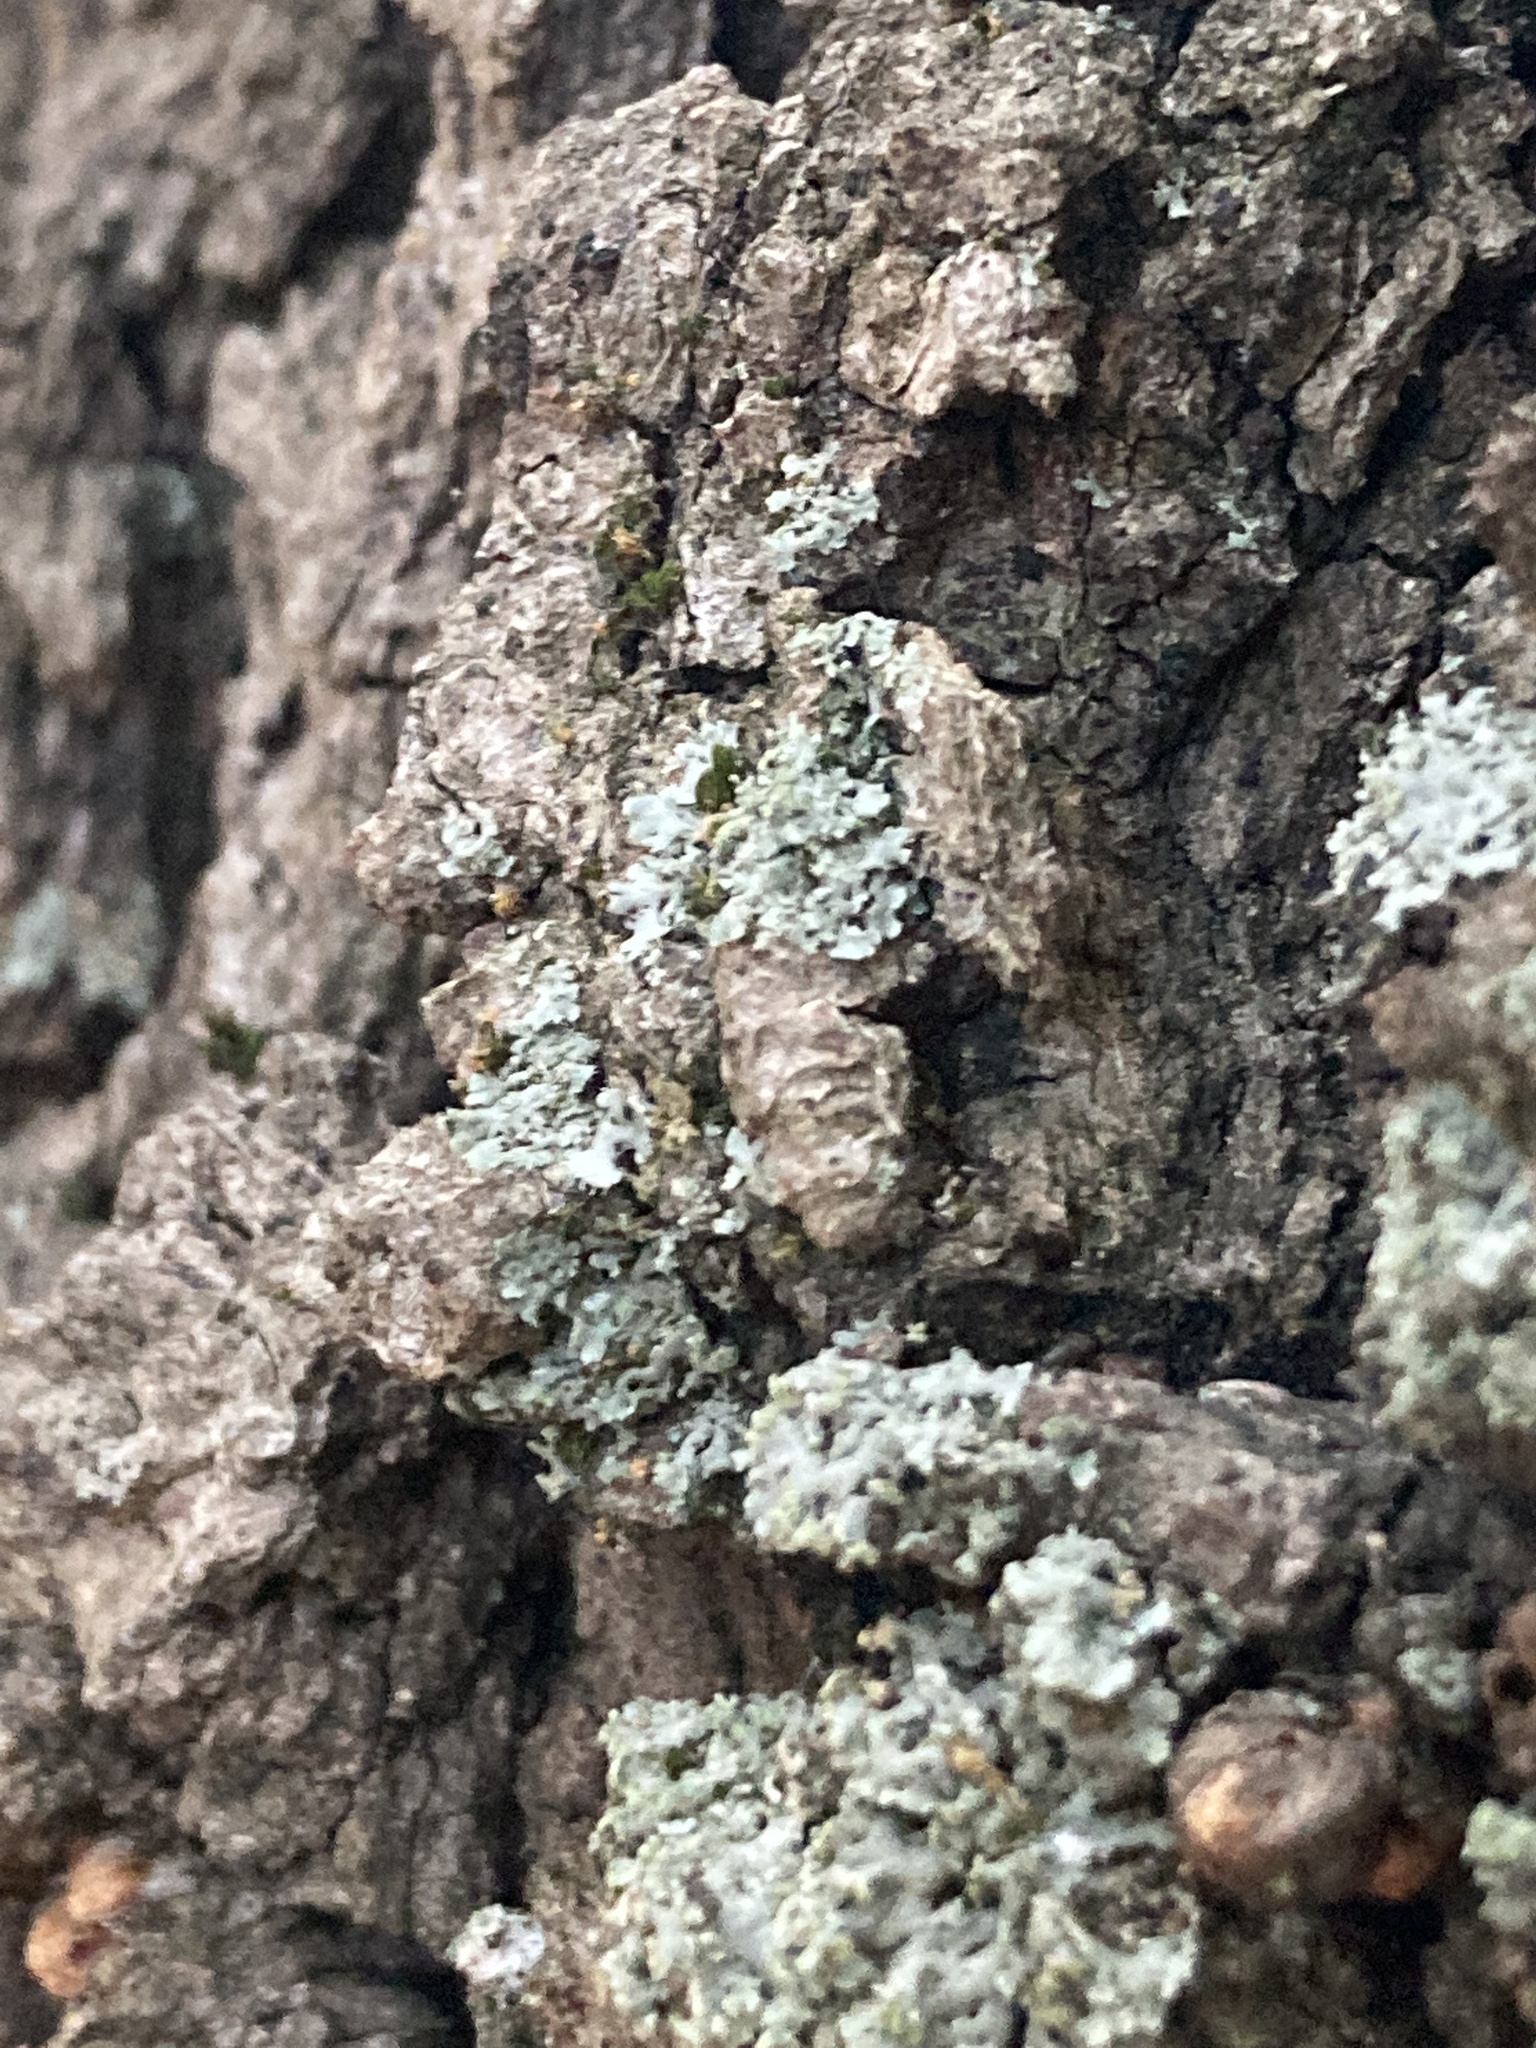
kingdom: Fungi
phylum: Ascomycota
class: Lecanoromycetes
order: Caliciales
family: Physciaceae
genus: Phaeophyscia
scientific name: Phaeophyscia orbicularis
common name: Mealy shadow lichen
